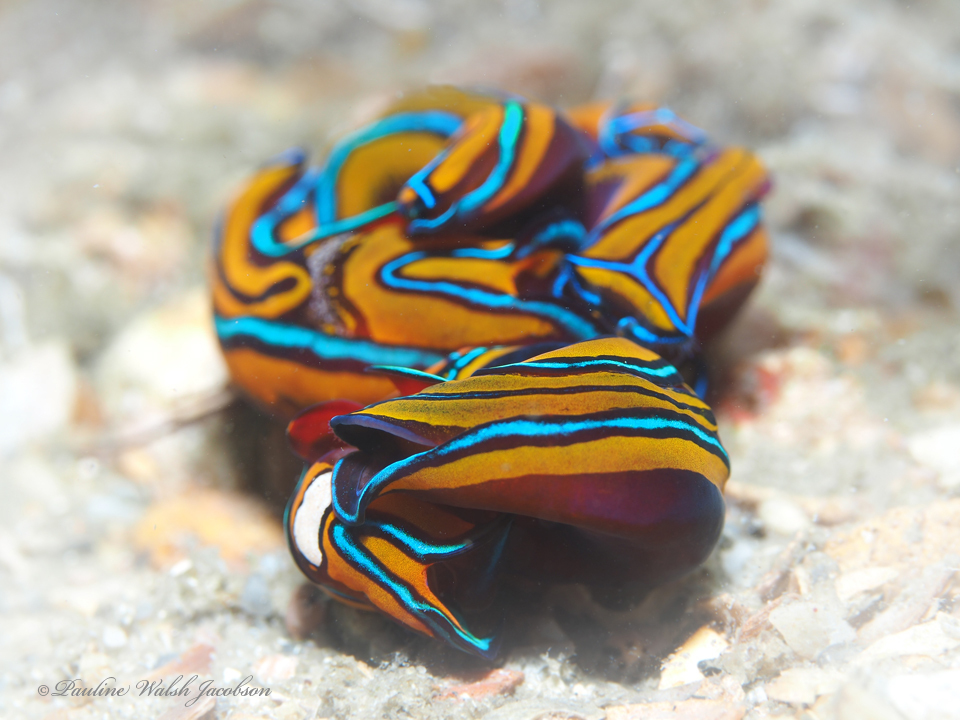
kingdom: Animalia
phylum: Mollusca
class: Gastropoda
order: Cephalaspidea
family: Aglajidae
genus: Chelidonura
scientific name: Chelidonura hirundinina
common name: Leech headshield slug
